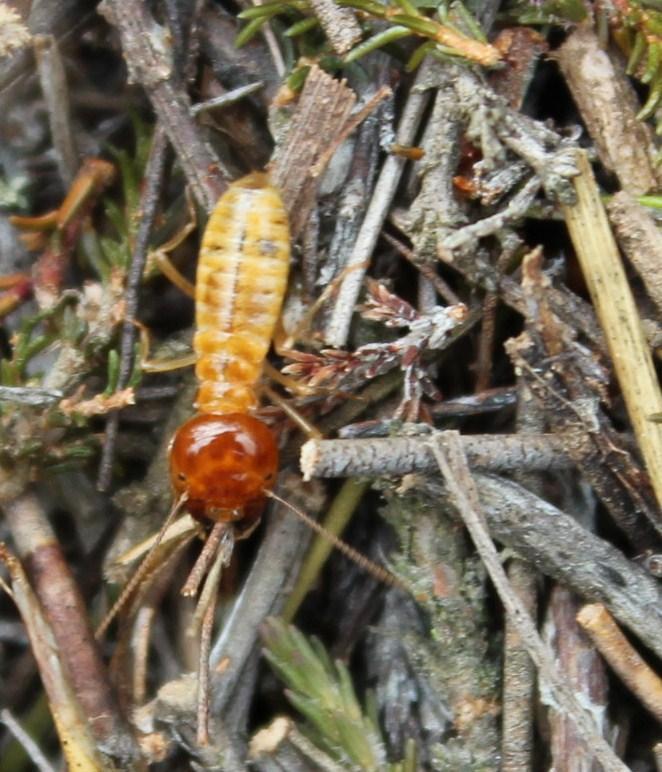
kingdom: Animalia
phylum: Arthropoda
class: Insecta
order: Blattodea
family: Hodotermitidae
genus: Microhodotermes
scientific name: Microhodotermes viator
